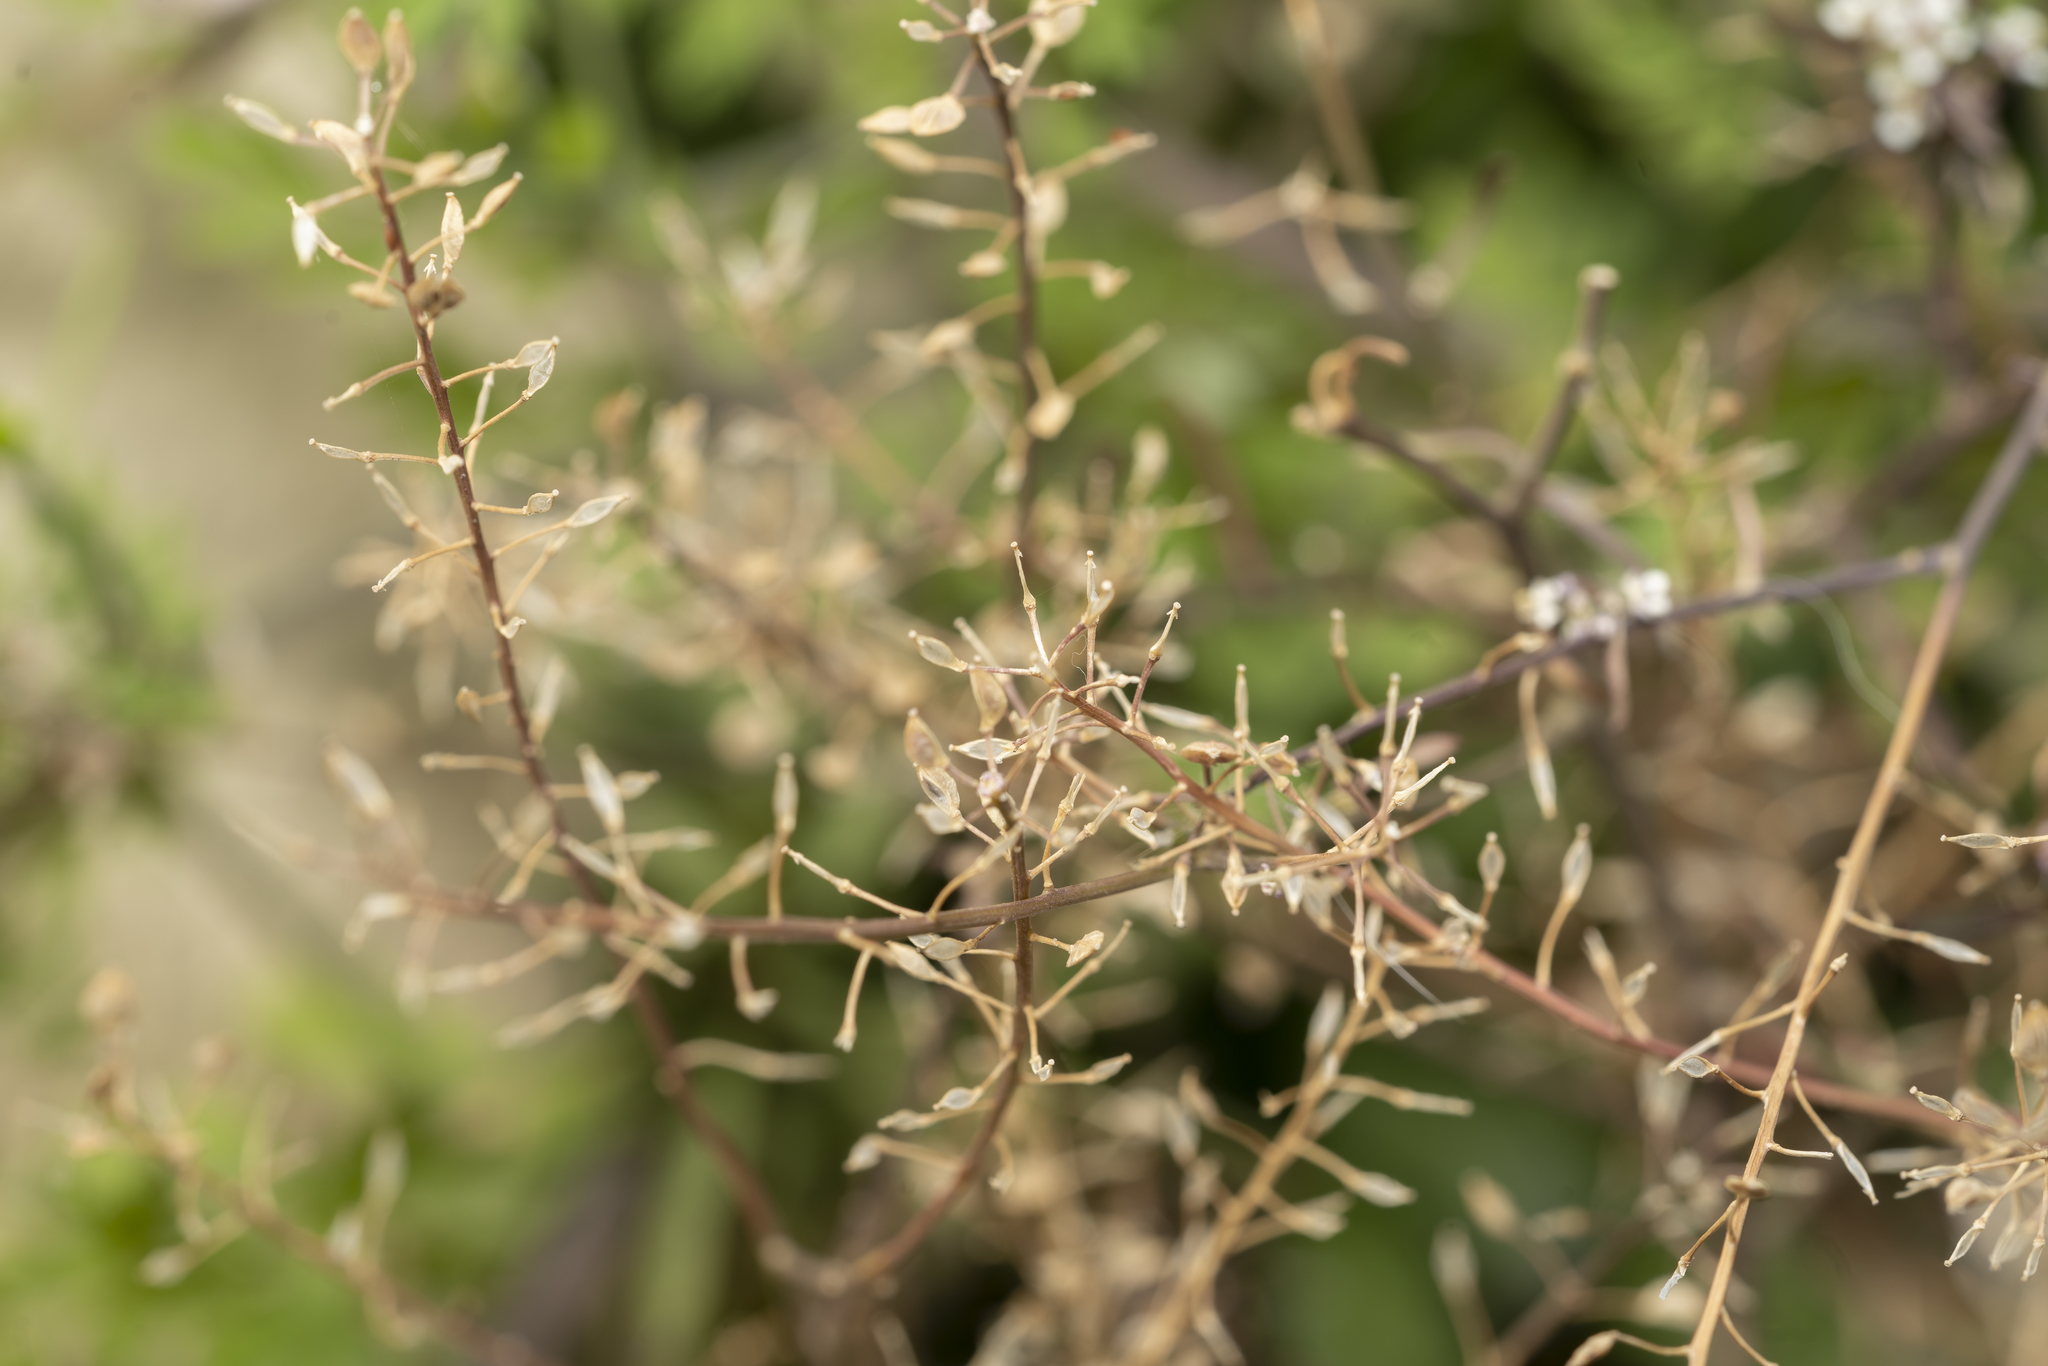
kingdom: Plantae
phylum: Tracheophyta
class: Magnoliopsida
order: Brassicales
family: Brassicaceae
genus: Lepidium
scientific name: Lepidium graminifolium
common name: Tall pepperwort
